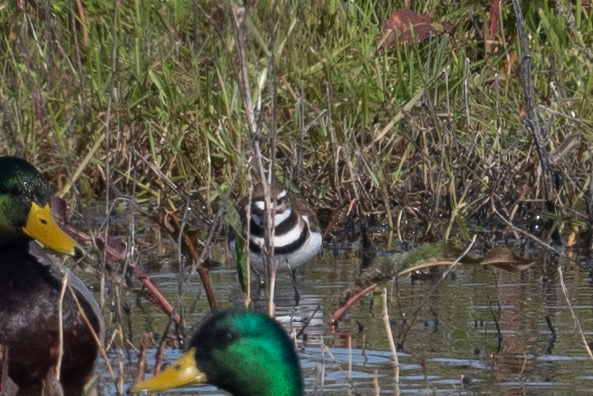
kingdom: Animalia
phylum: Chordata
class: Aves
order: Charadriiformes
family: Charadriidae
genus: Charadrius
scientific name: Charadrius vociferus
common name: Killdeer
